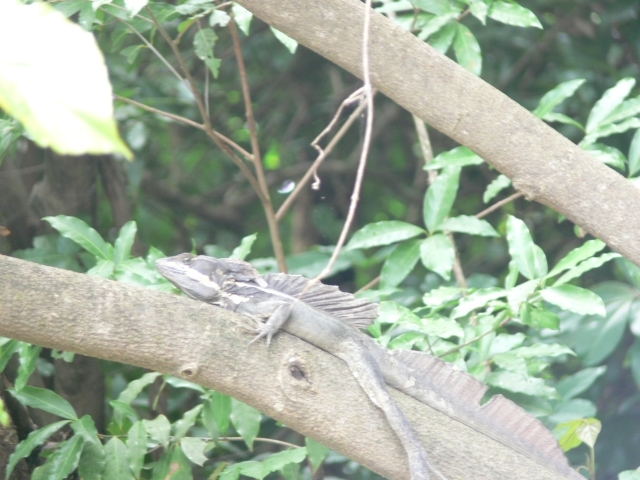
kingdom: Animalia
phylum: Chordata
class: Squamata
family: Corytophanidae
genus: Basiliscus
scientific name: Basiliscus basiliscus
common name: Common basilisk
